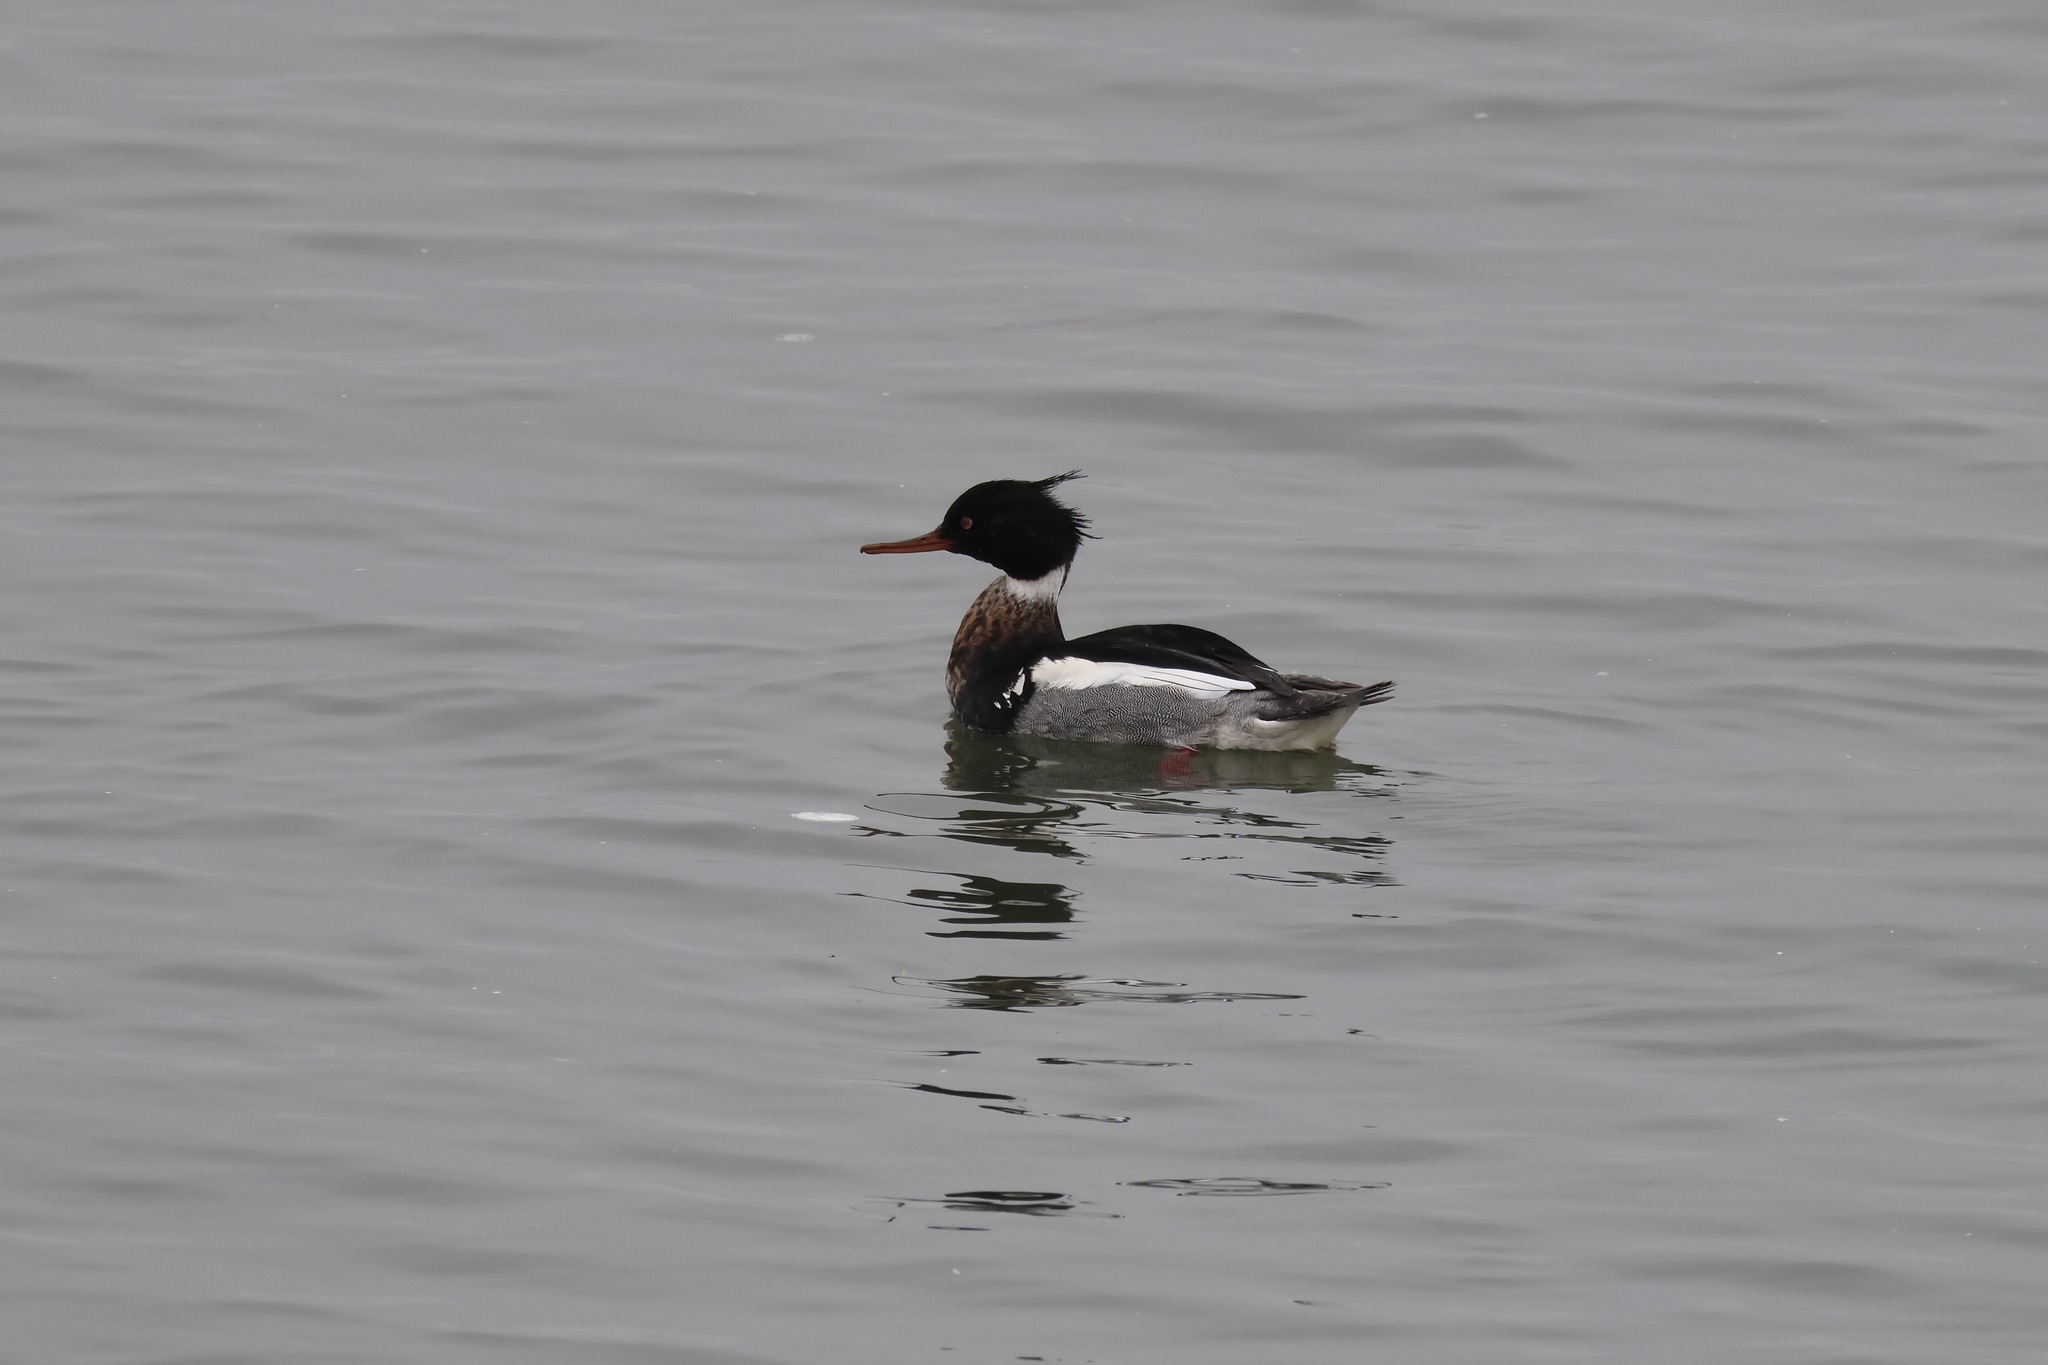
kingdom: Animalia
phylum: Chordata
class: Aves
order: Anseriformes
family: Anatidae
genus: Mergus
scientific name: Mergus serrator
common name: Red-breasted merganser
